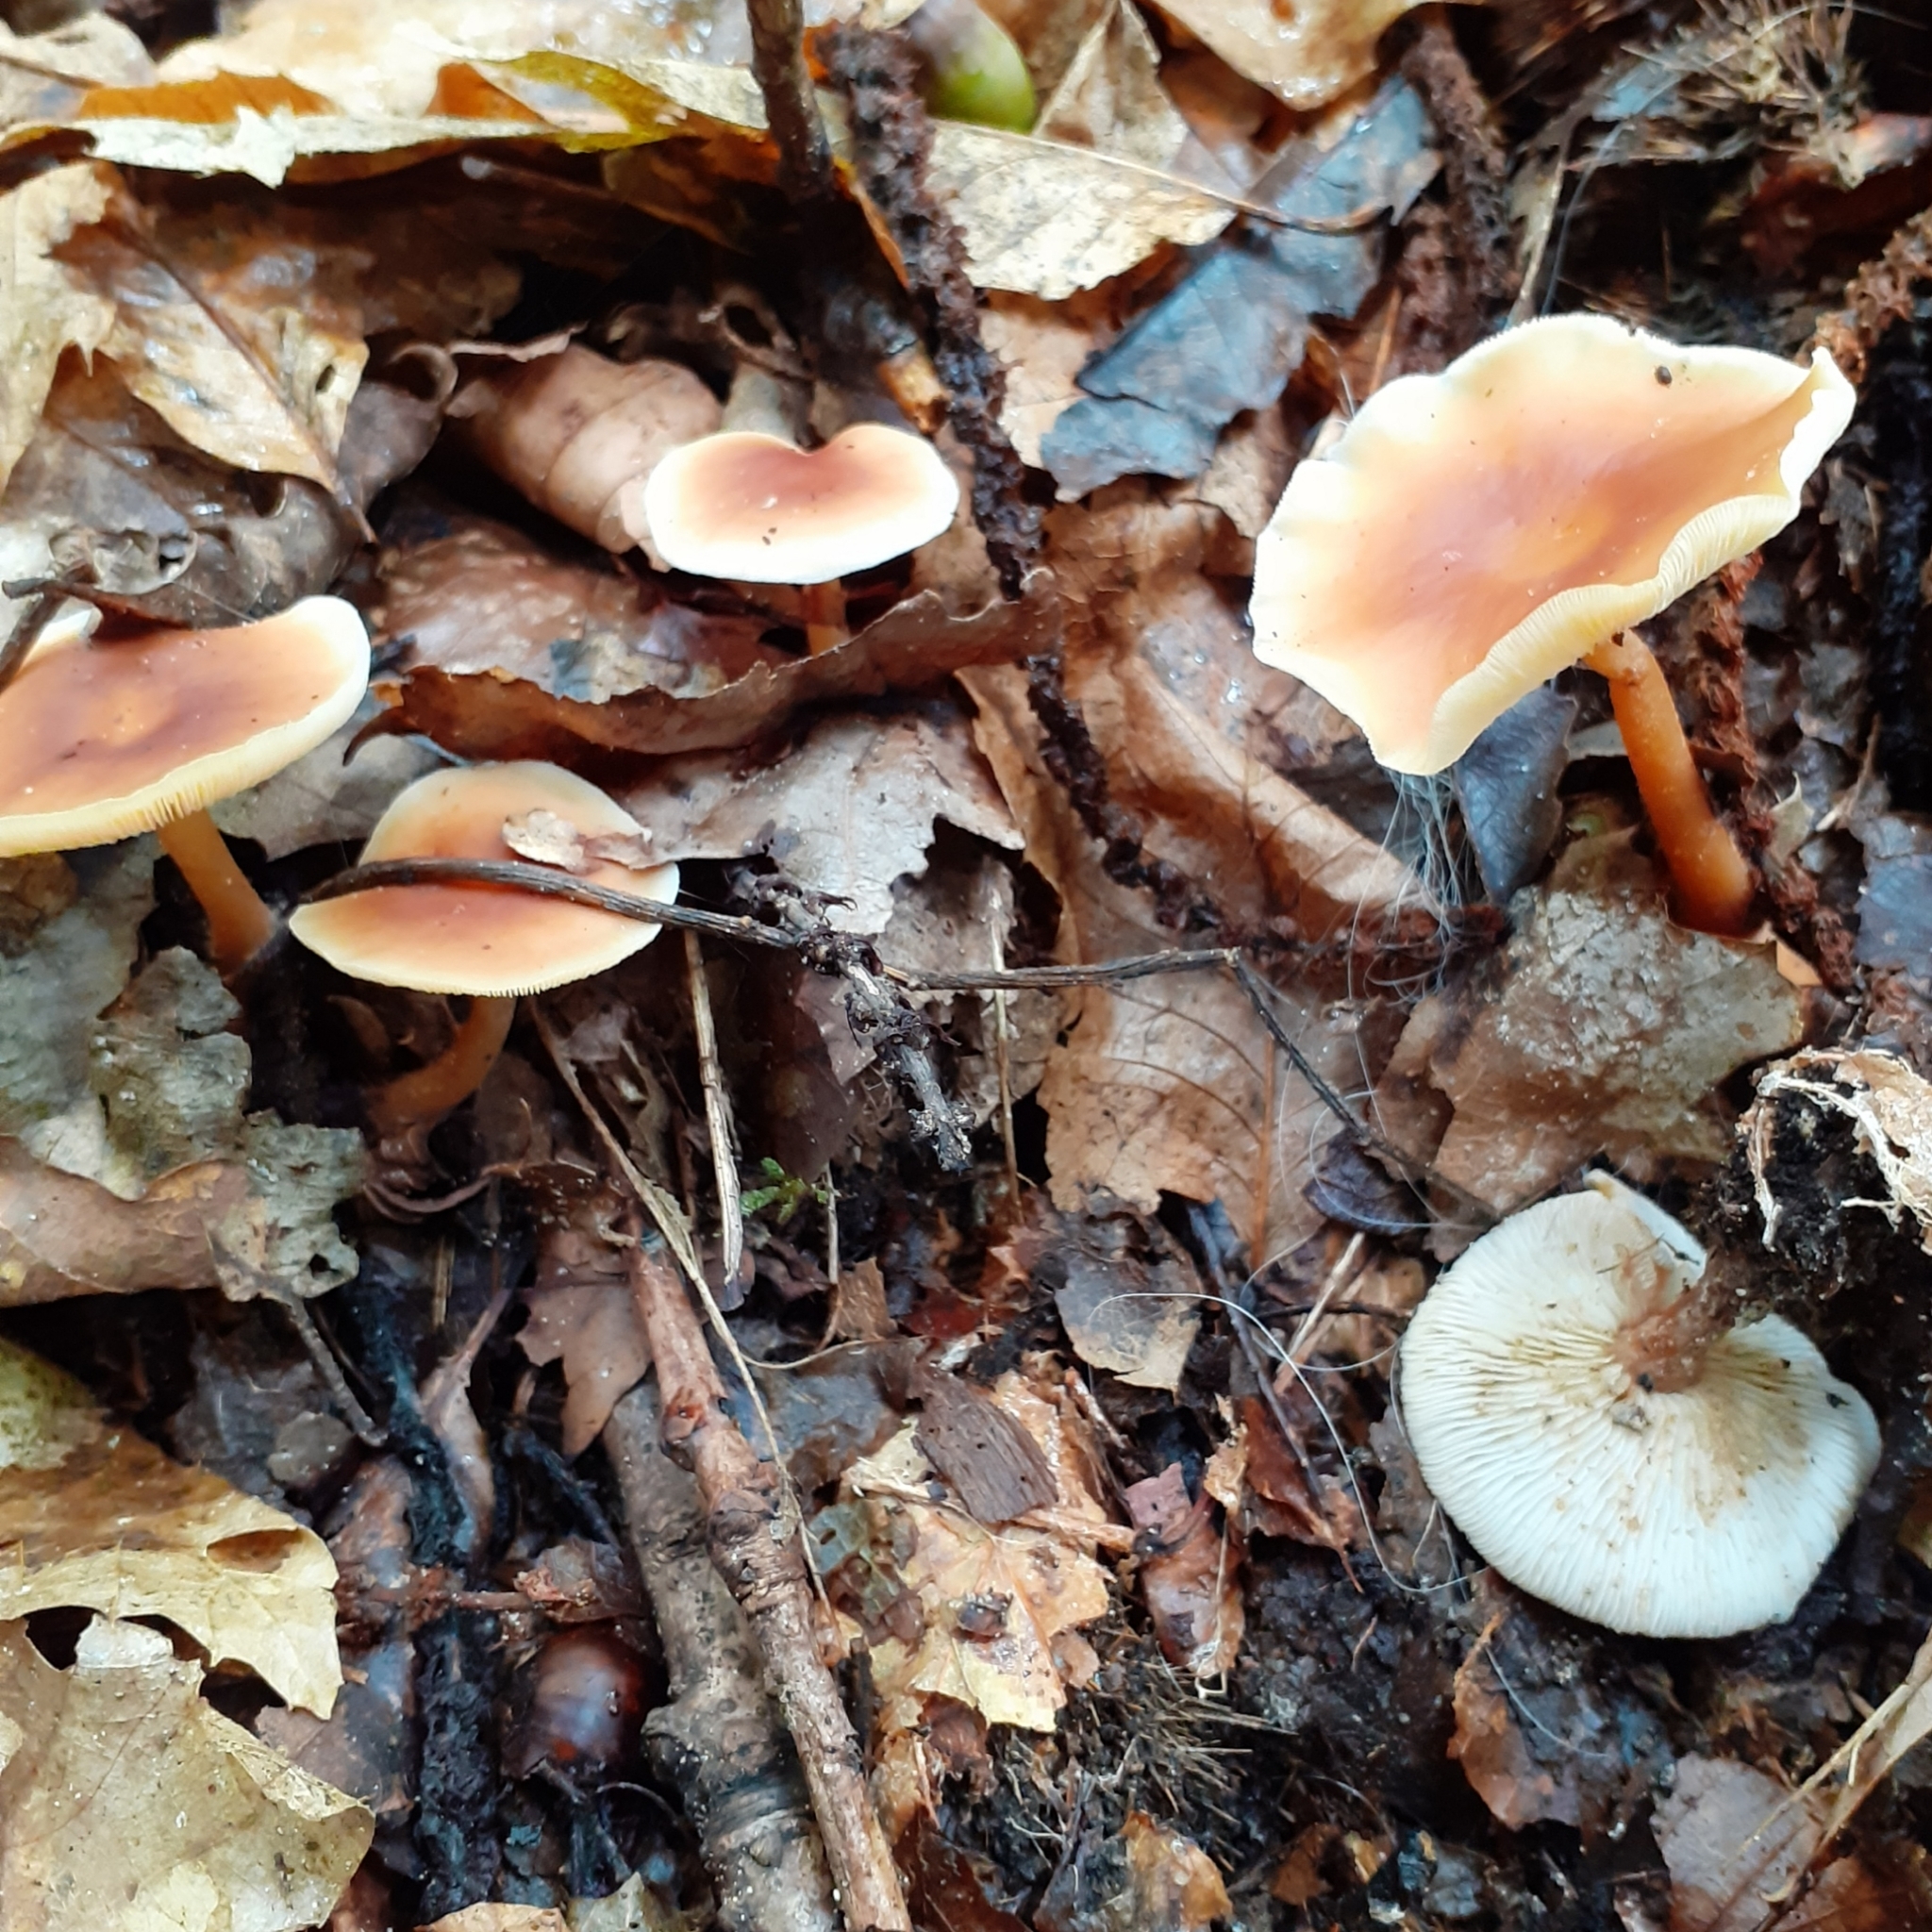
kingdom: Fungi
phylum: Basidiomycota
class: Agaricomycetes
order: Agaricales
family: Omphalotaceae
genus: Rhodocollybia
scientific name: Rhodocollybia butyracea
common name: Butter cap
